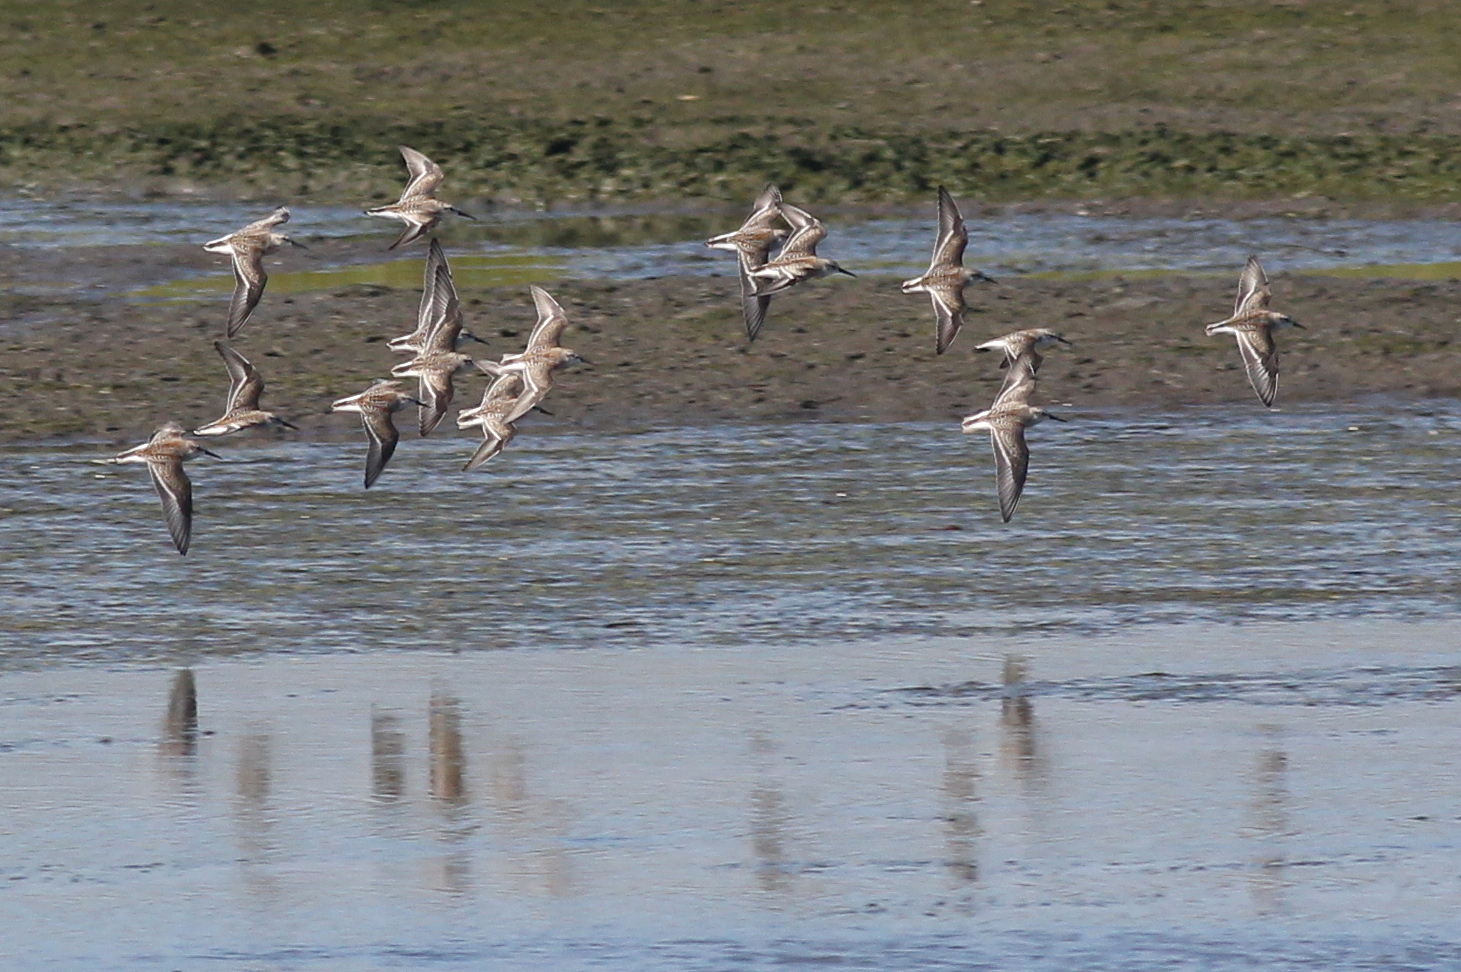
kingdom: Animalia
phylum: Chordata
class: Aves
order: Charadriiformes
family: Scolopacidae
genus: Calidris
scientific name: Calidris mauri
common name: Western sandpiper
